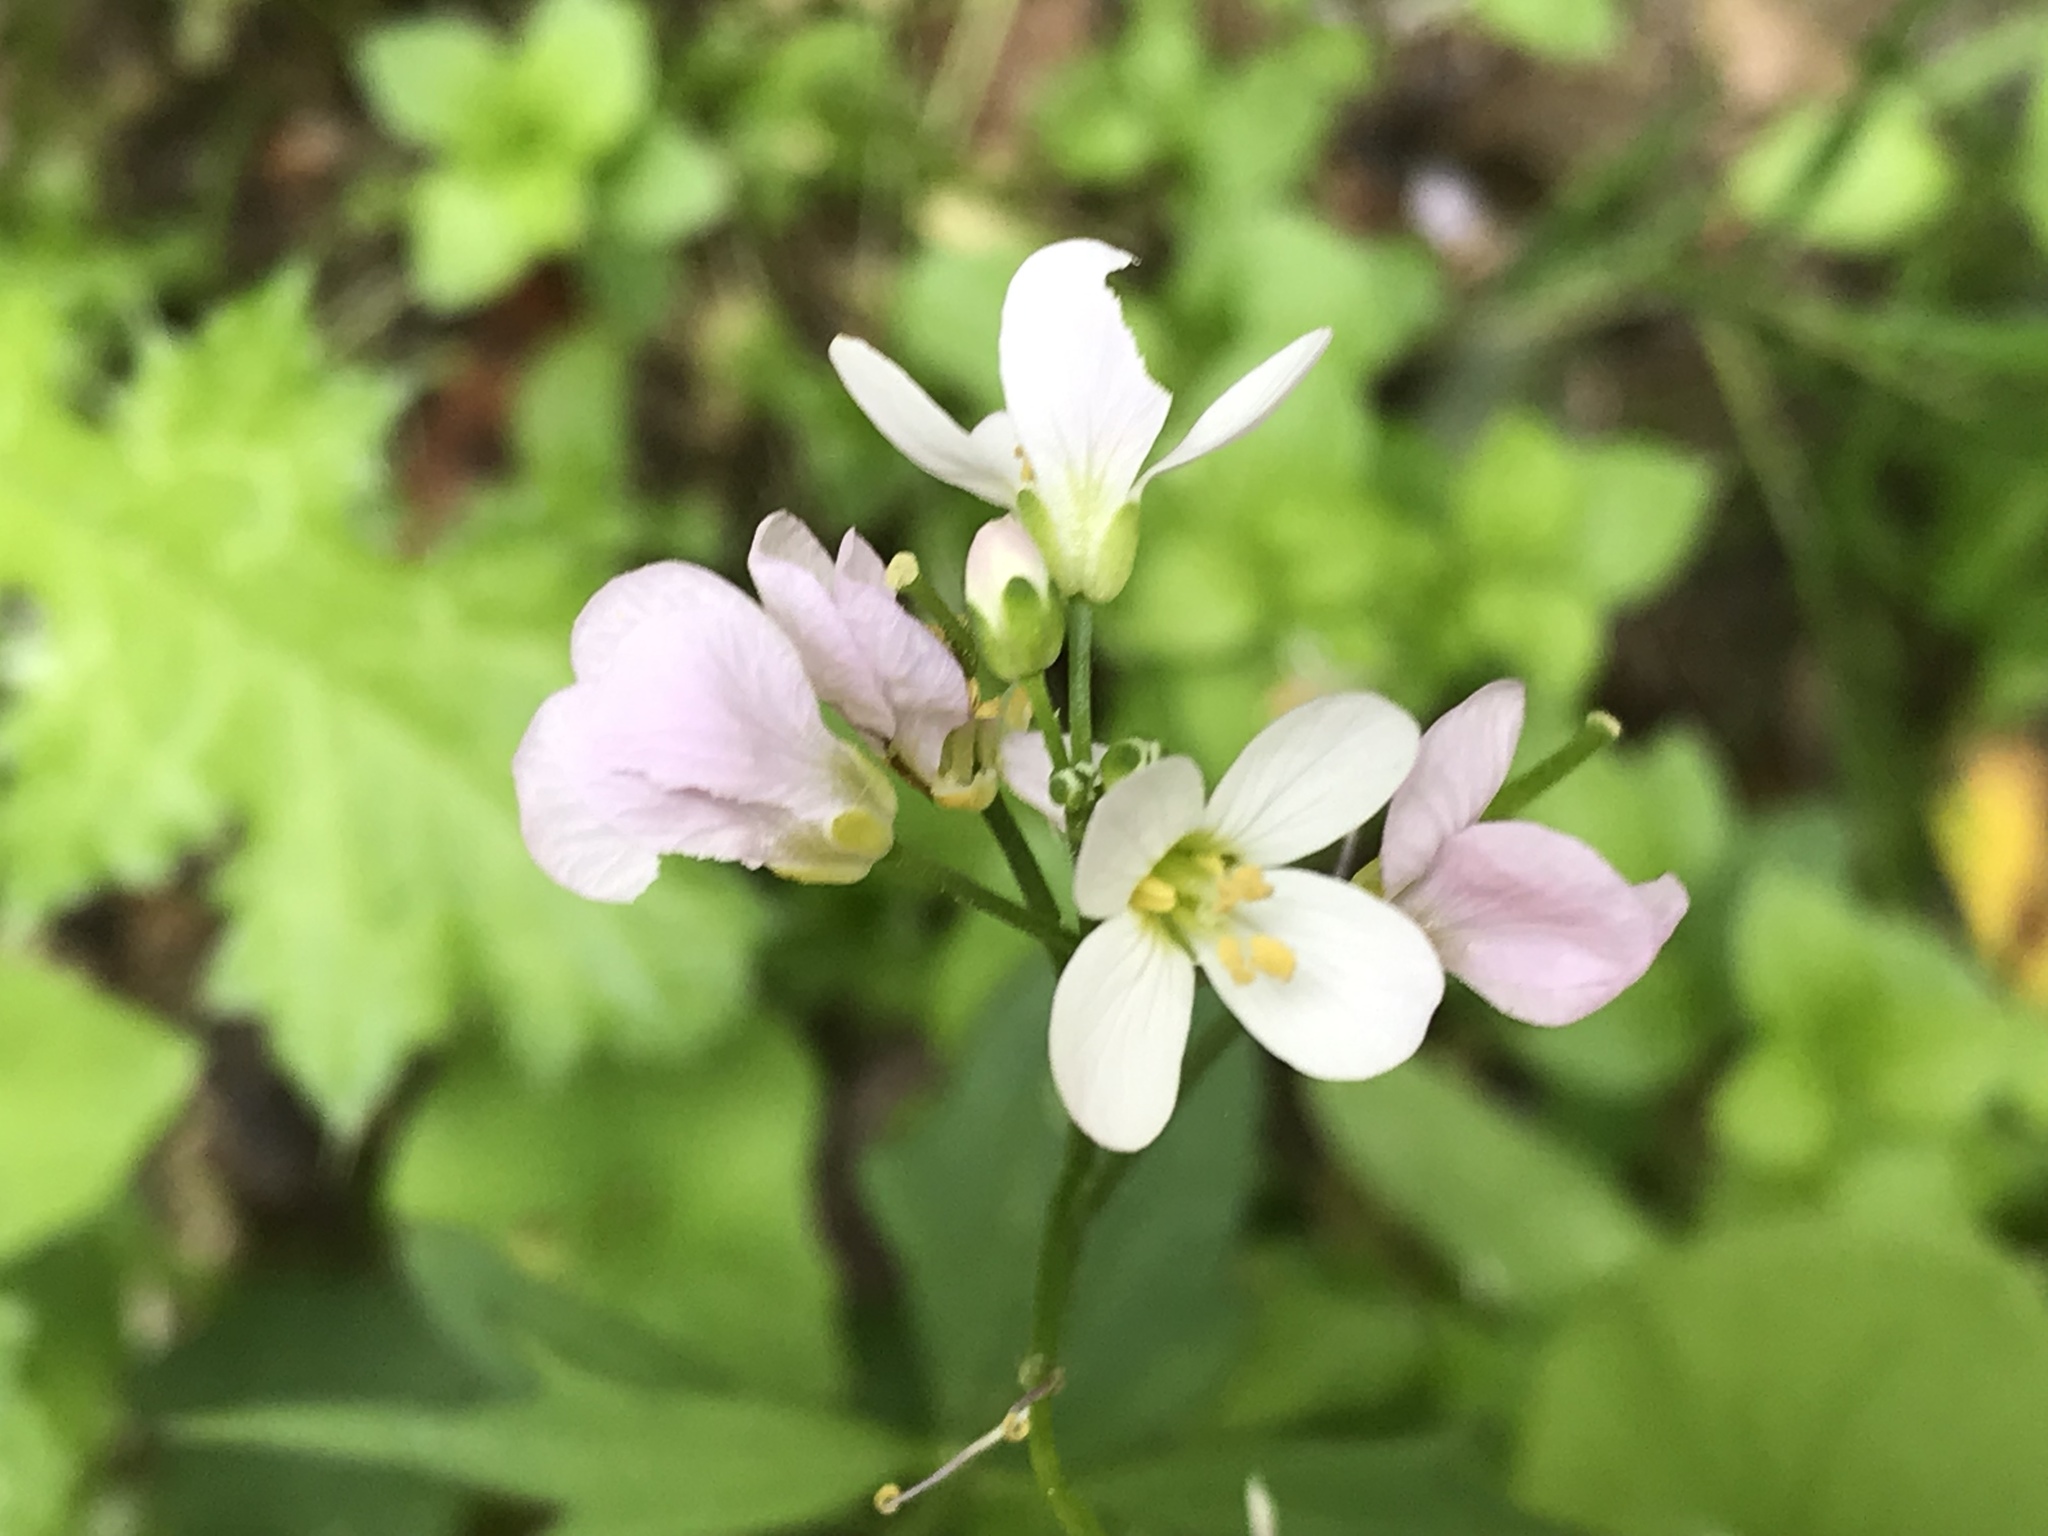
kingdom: Plantae
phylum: Tracheophyta
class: Magnoliopsida
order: Brassicales
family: Brassicaceae
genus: Cardamine
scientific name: Cardamine californica
